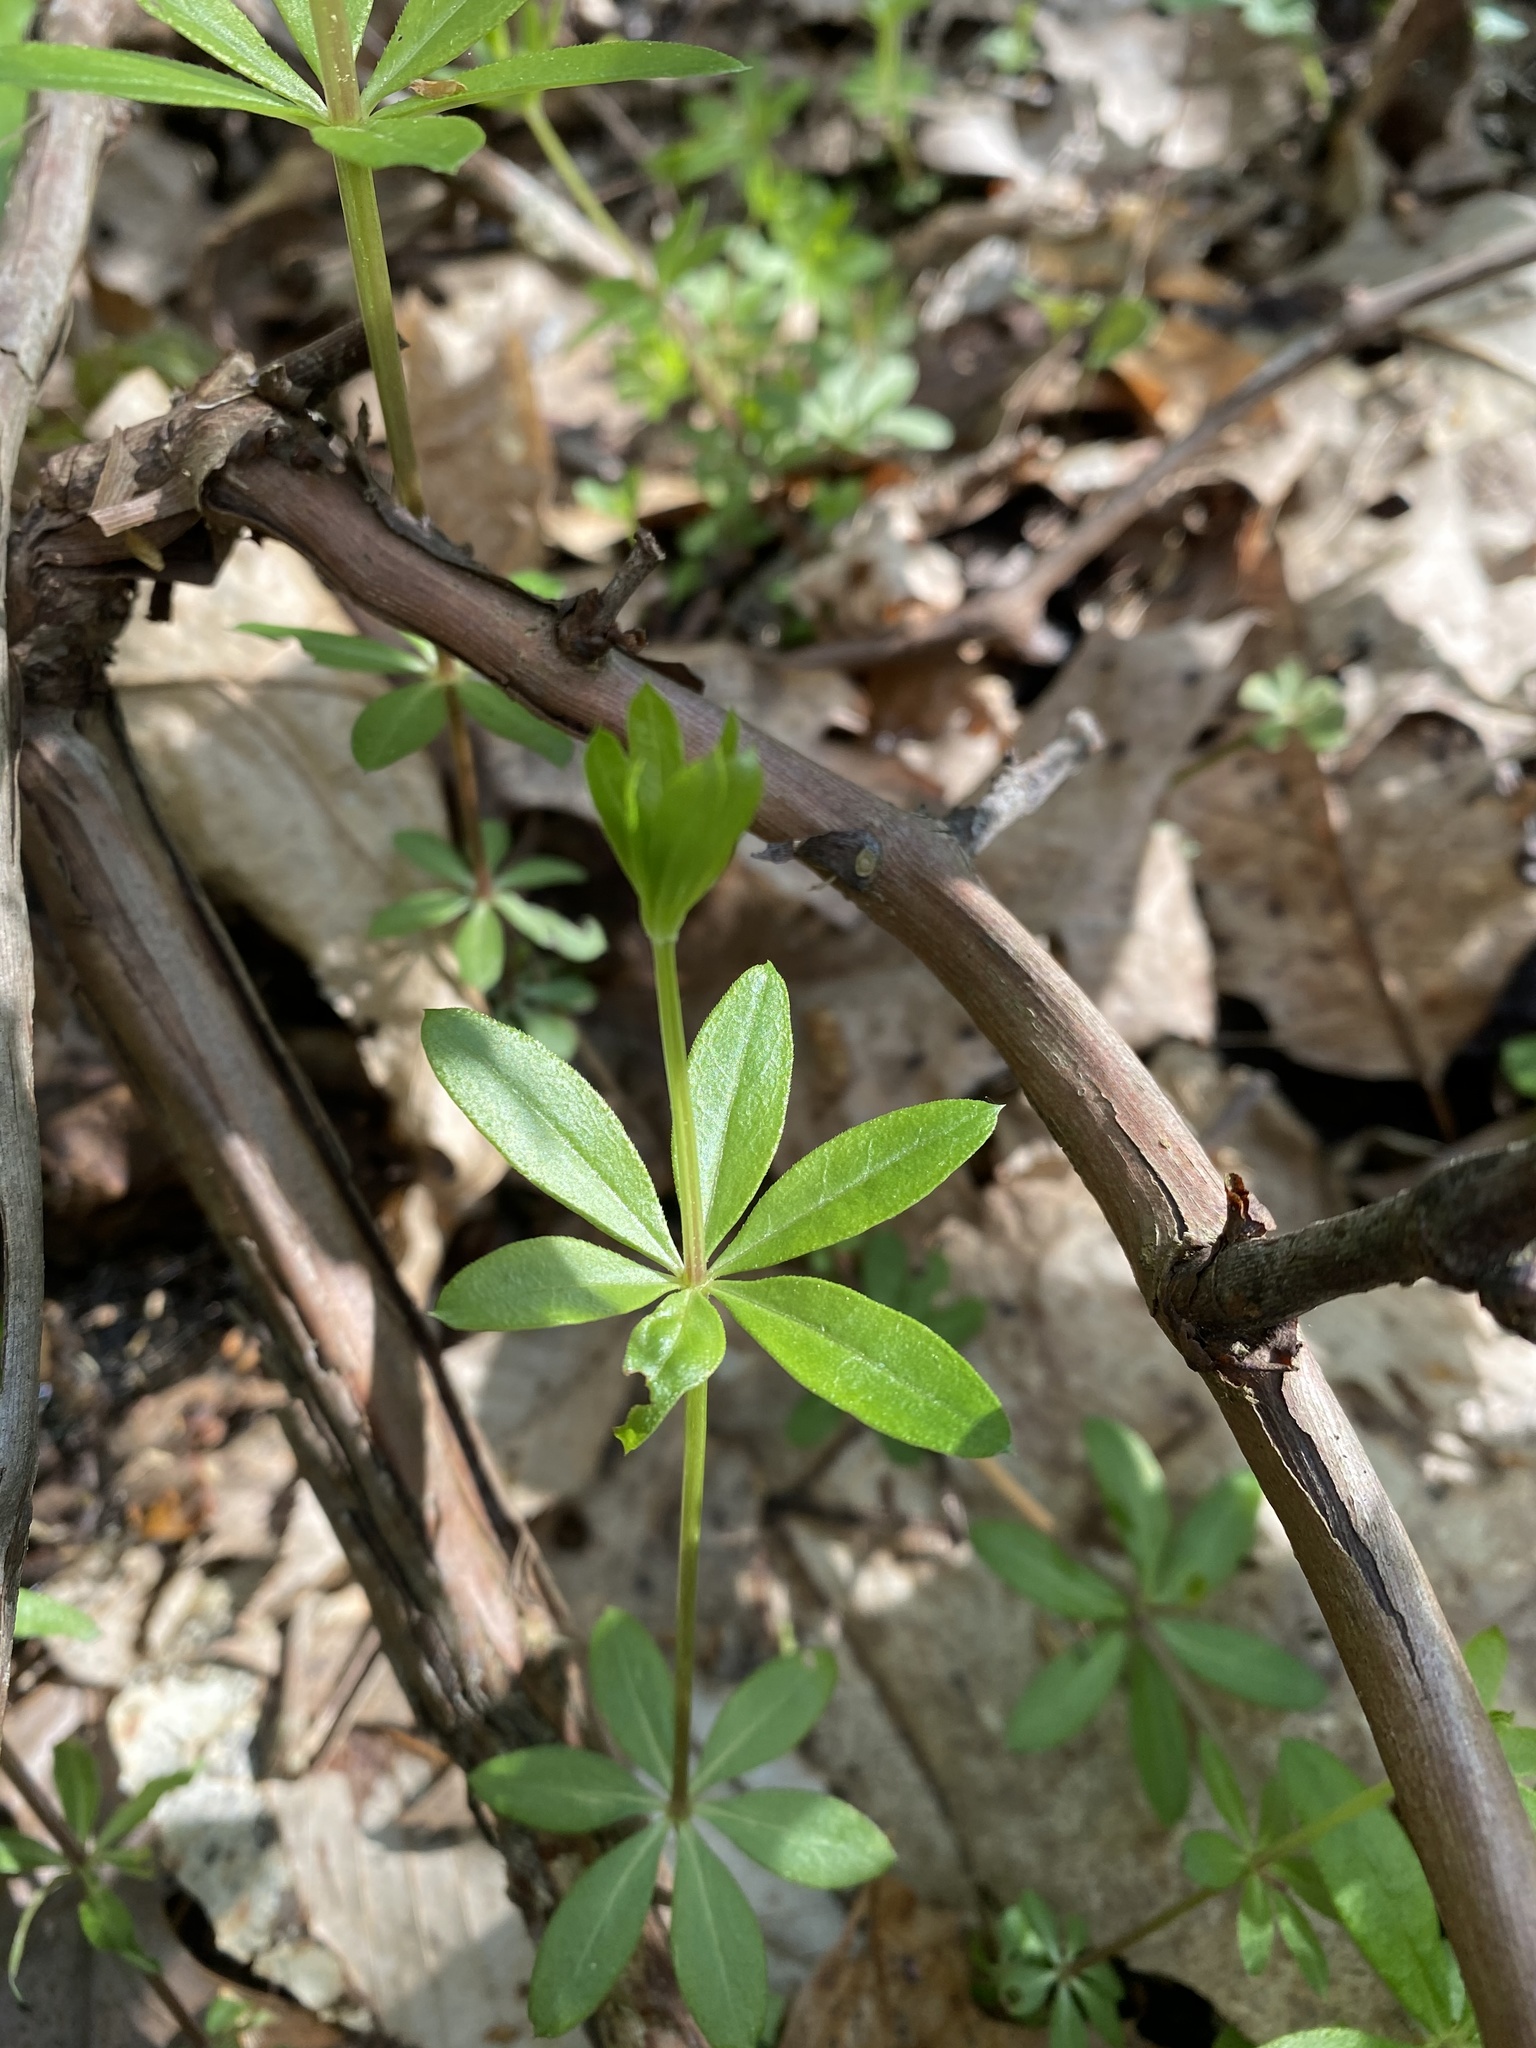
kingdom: Plantae
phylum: Tracheophyta
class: Magnoliopsida
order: Gentianales
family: Rubiaceae
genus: Galium
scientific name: Galium triflorum
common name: Fragrant bedstraw
